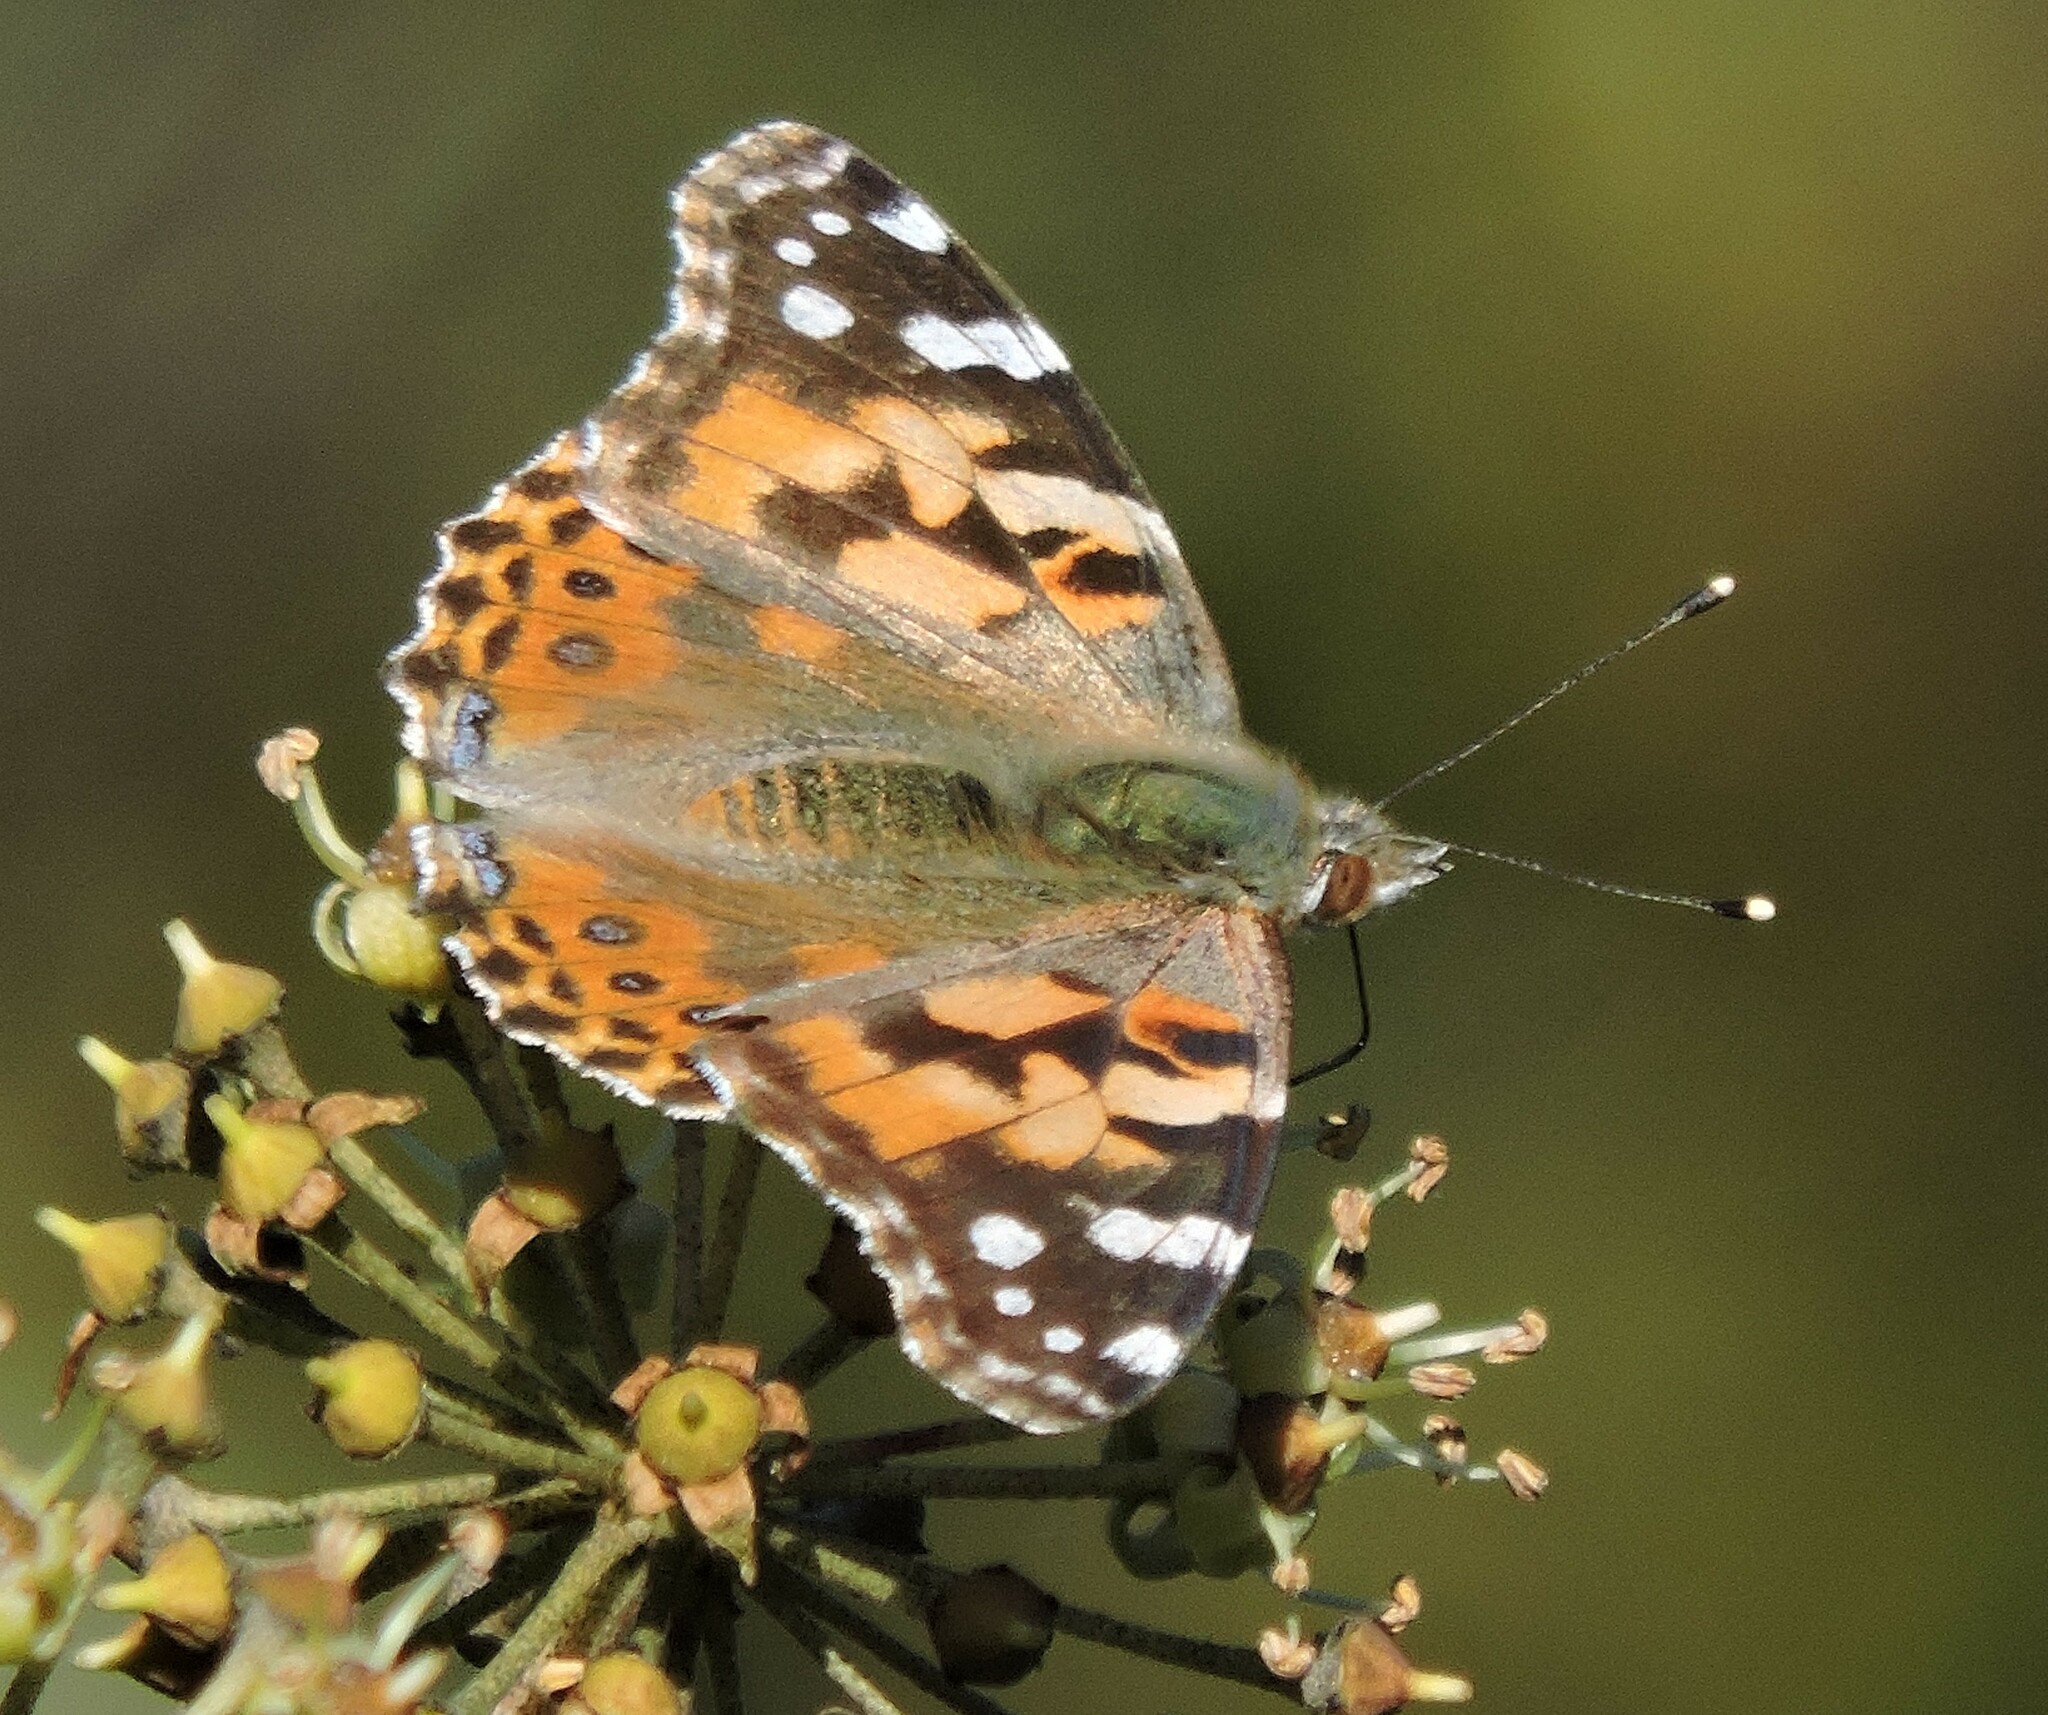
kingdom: Animalia
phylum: Arthropoda
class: Insecta
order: Lepidoptera
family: Nymphalidae
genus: Vanessa
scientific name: Vanessa cardui
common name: Painted lady
